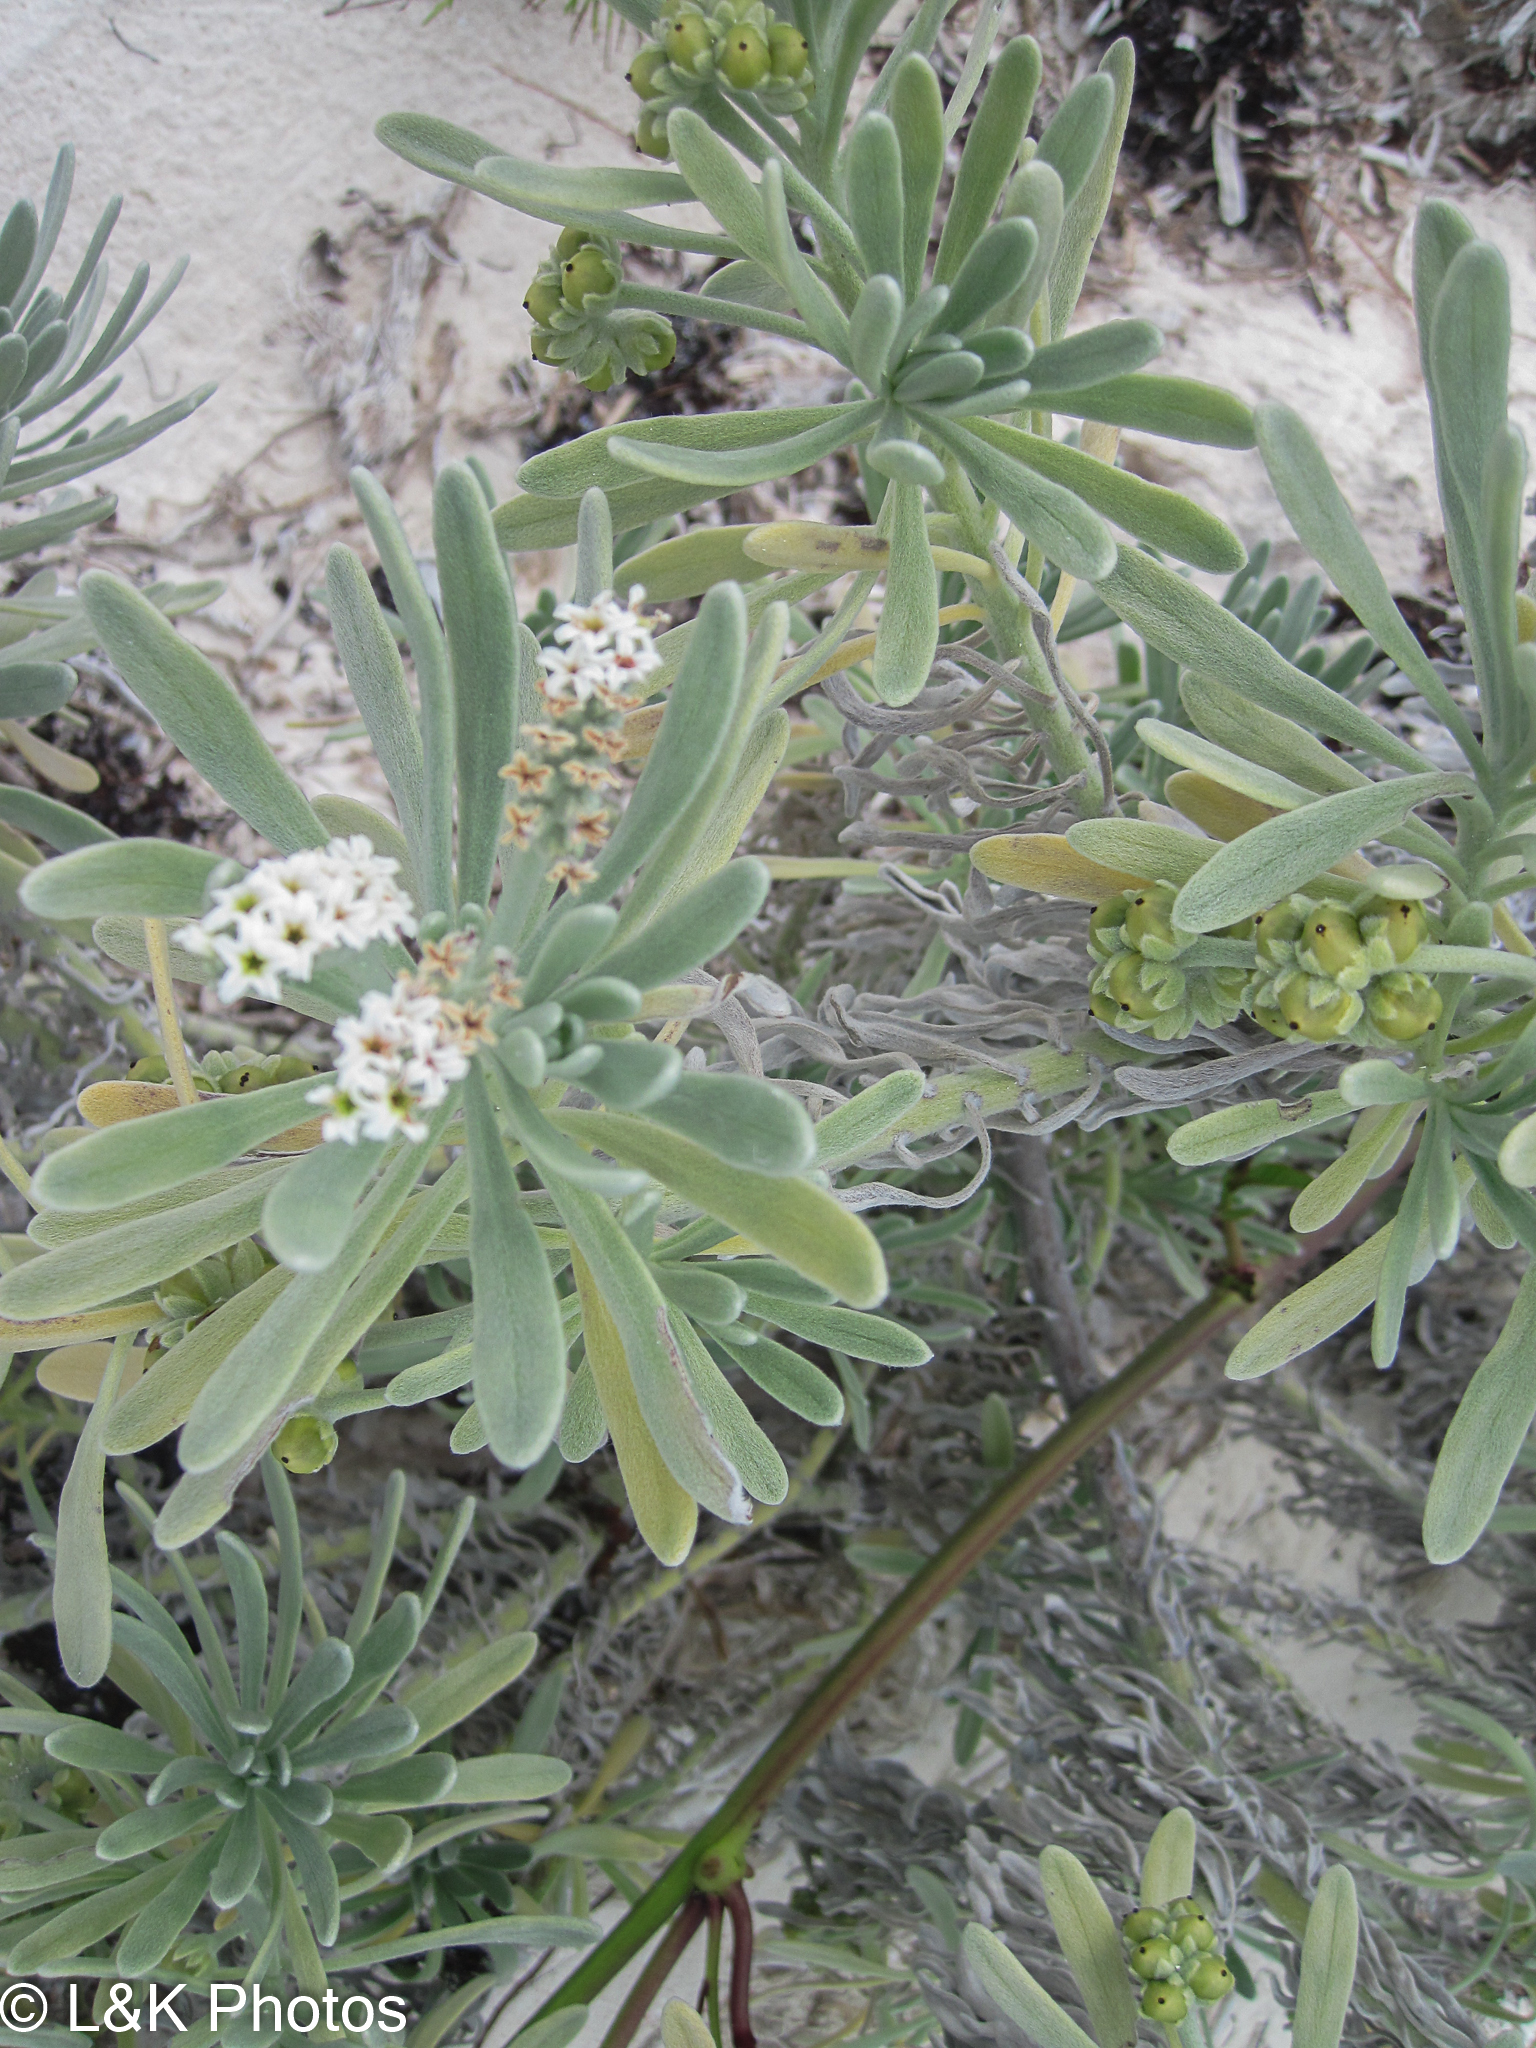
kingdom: Plantae
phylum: Tracheophyta
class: Magnoliopsida
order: Boraginales
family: Heliotropiaceae
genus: Tournefortia
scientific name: Tournefortia gnaphalodes
